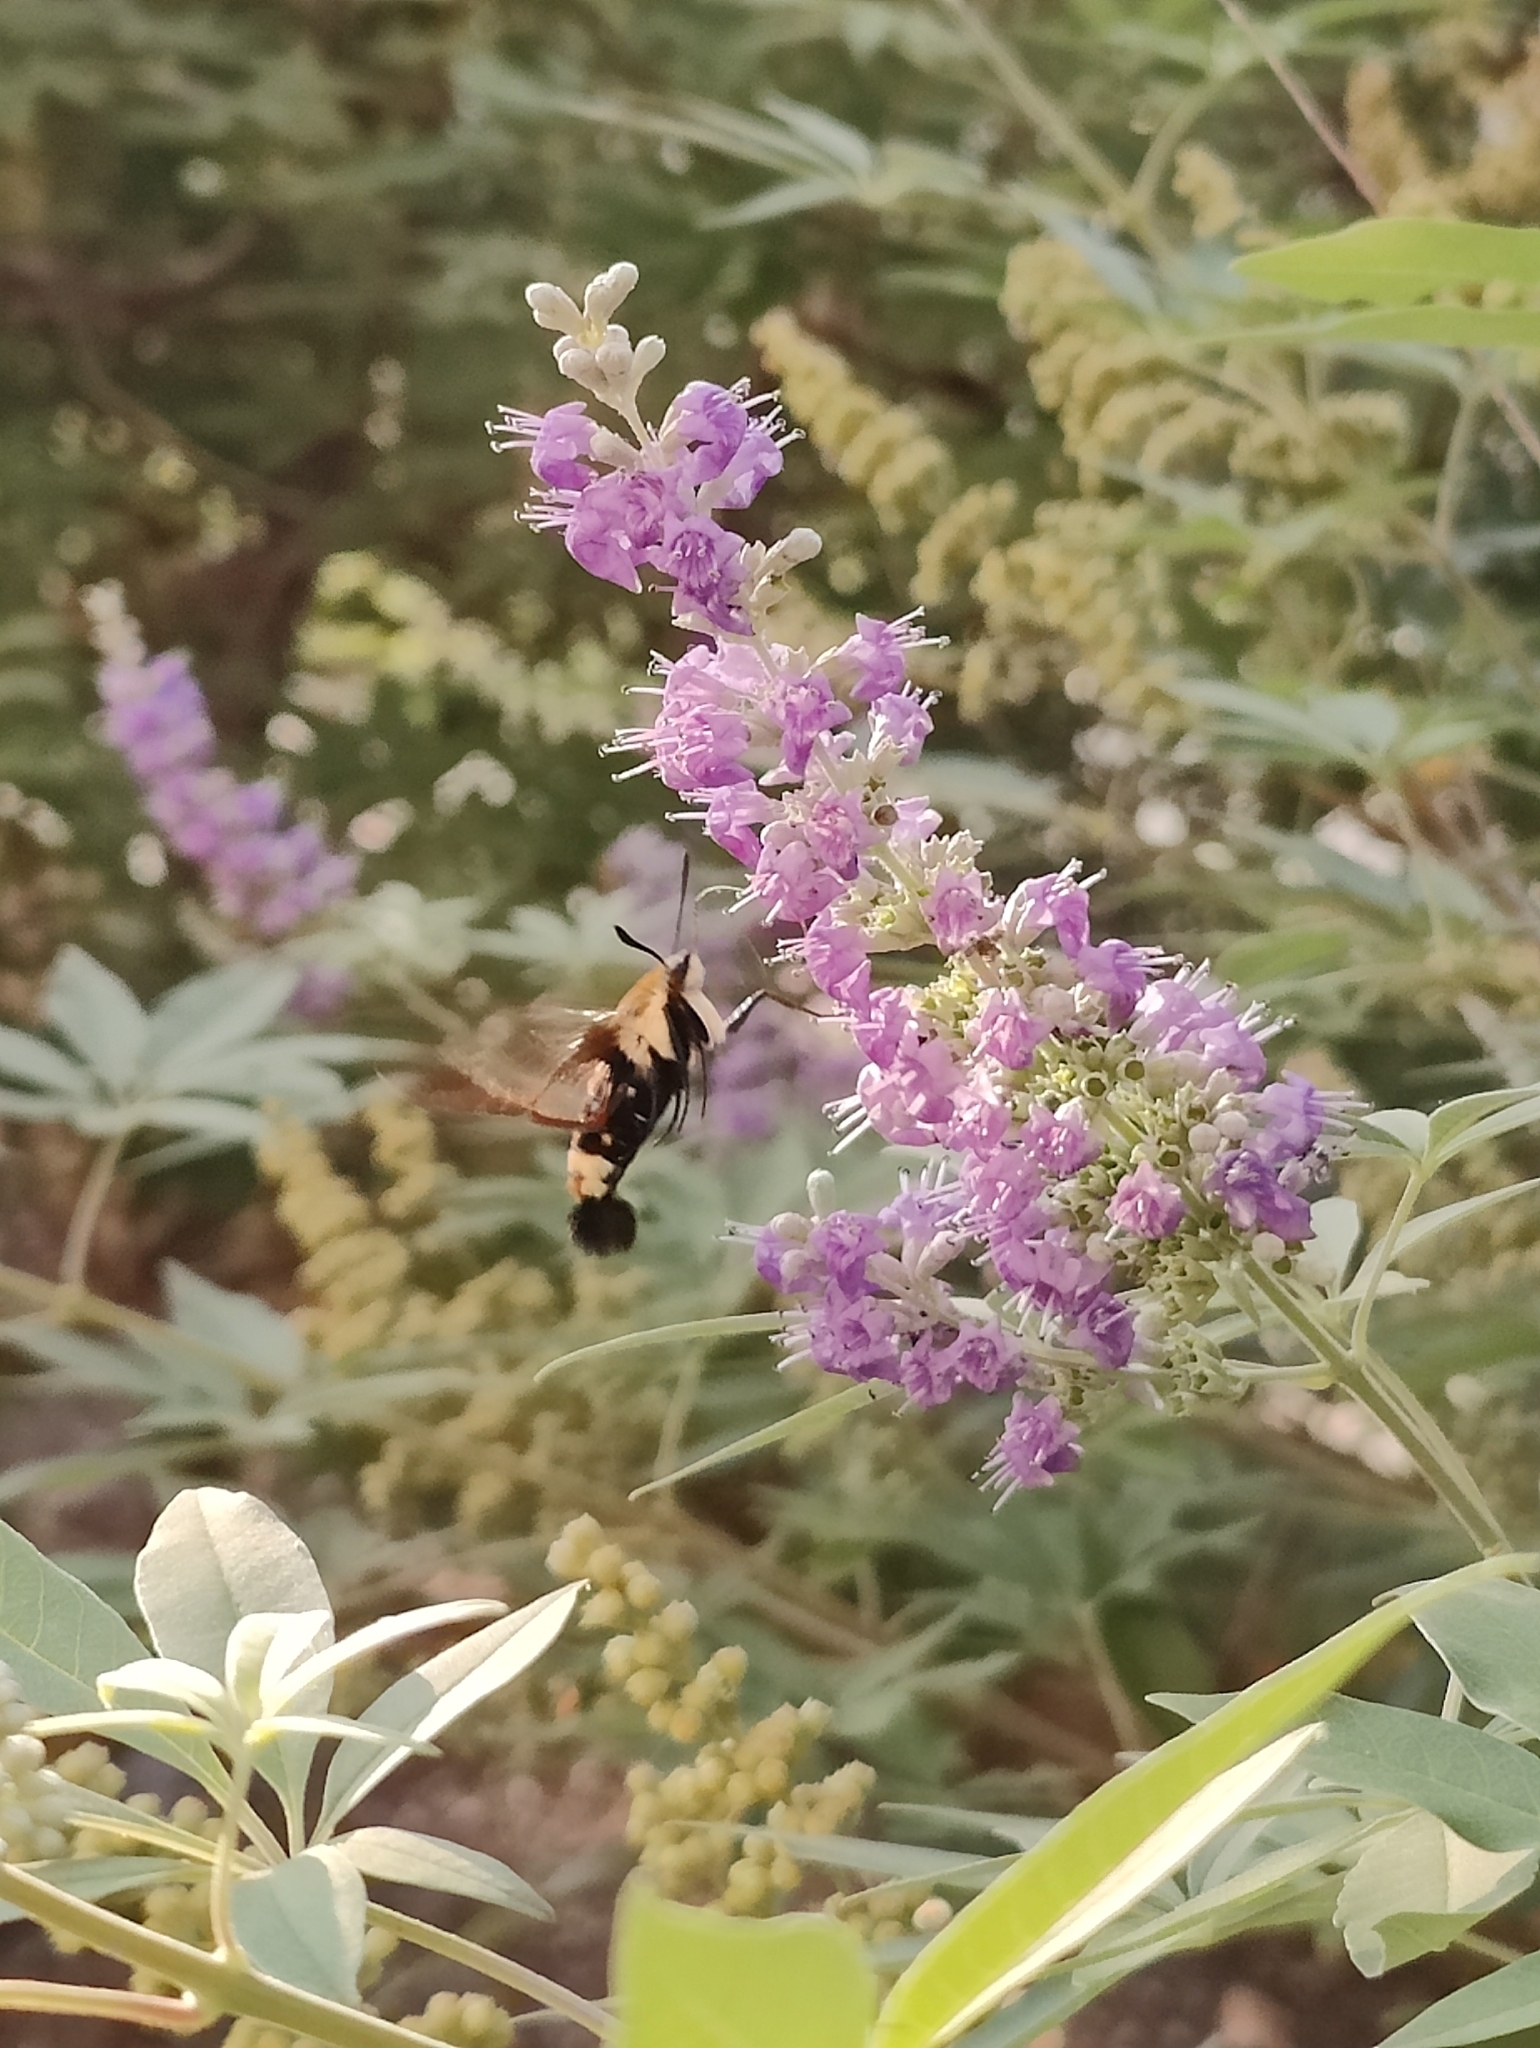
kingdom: Animalia
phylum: Arthropoda
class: Insecta
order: Lepidoptera
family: Sphingidae
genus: Hemaris
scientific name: Hemaris diffinis
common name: Bumblebee moth
